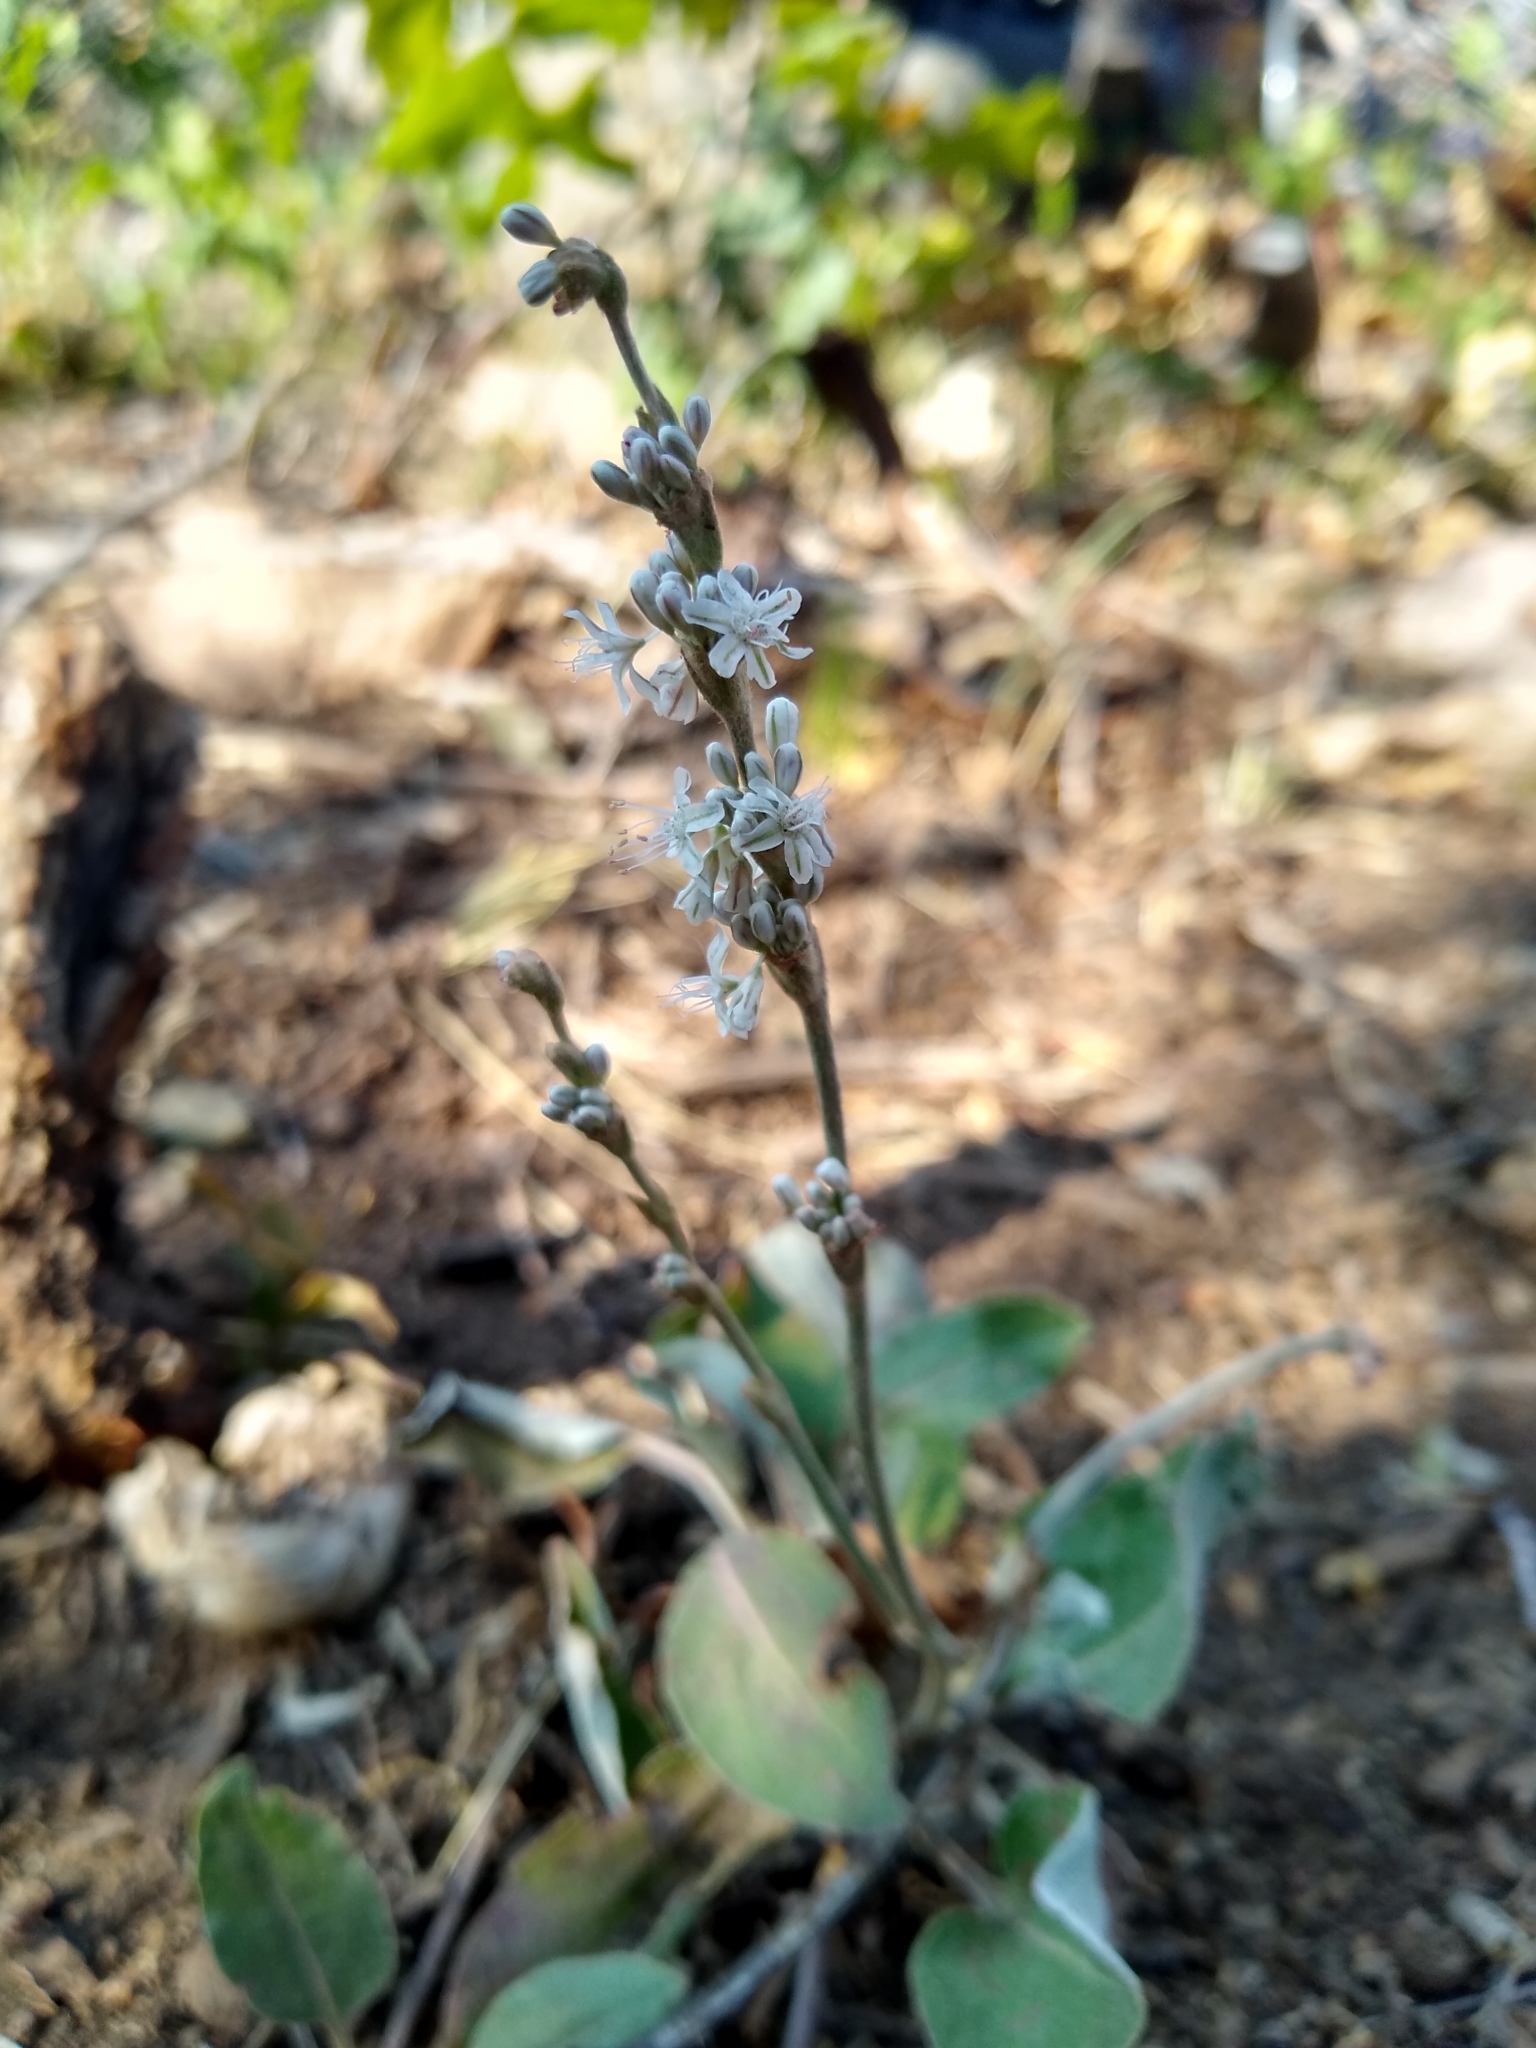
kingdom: Plantae
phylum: Tracheophyta
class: Magnoliopsida
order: Caryophyllales
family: Polygonaceae
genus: Eriogonum
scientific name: Eriogonum racemosum
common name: Redroot wild buckwheat
